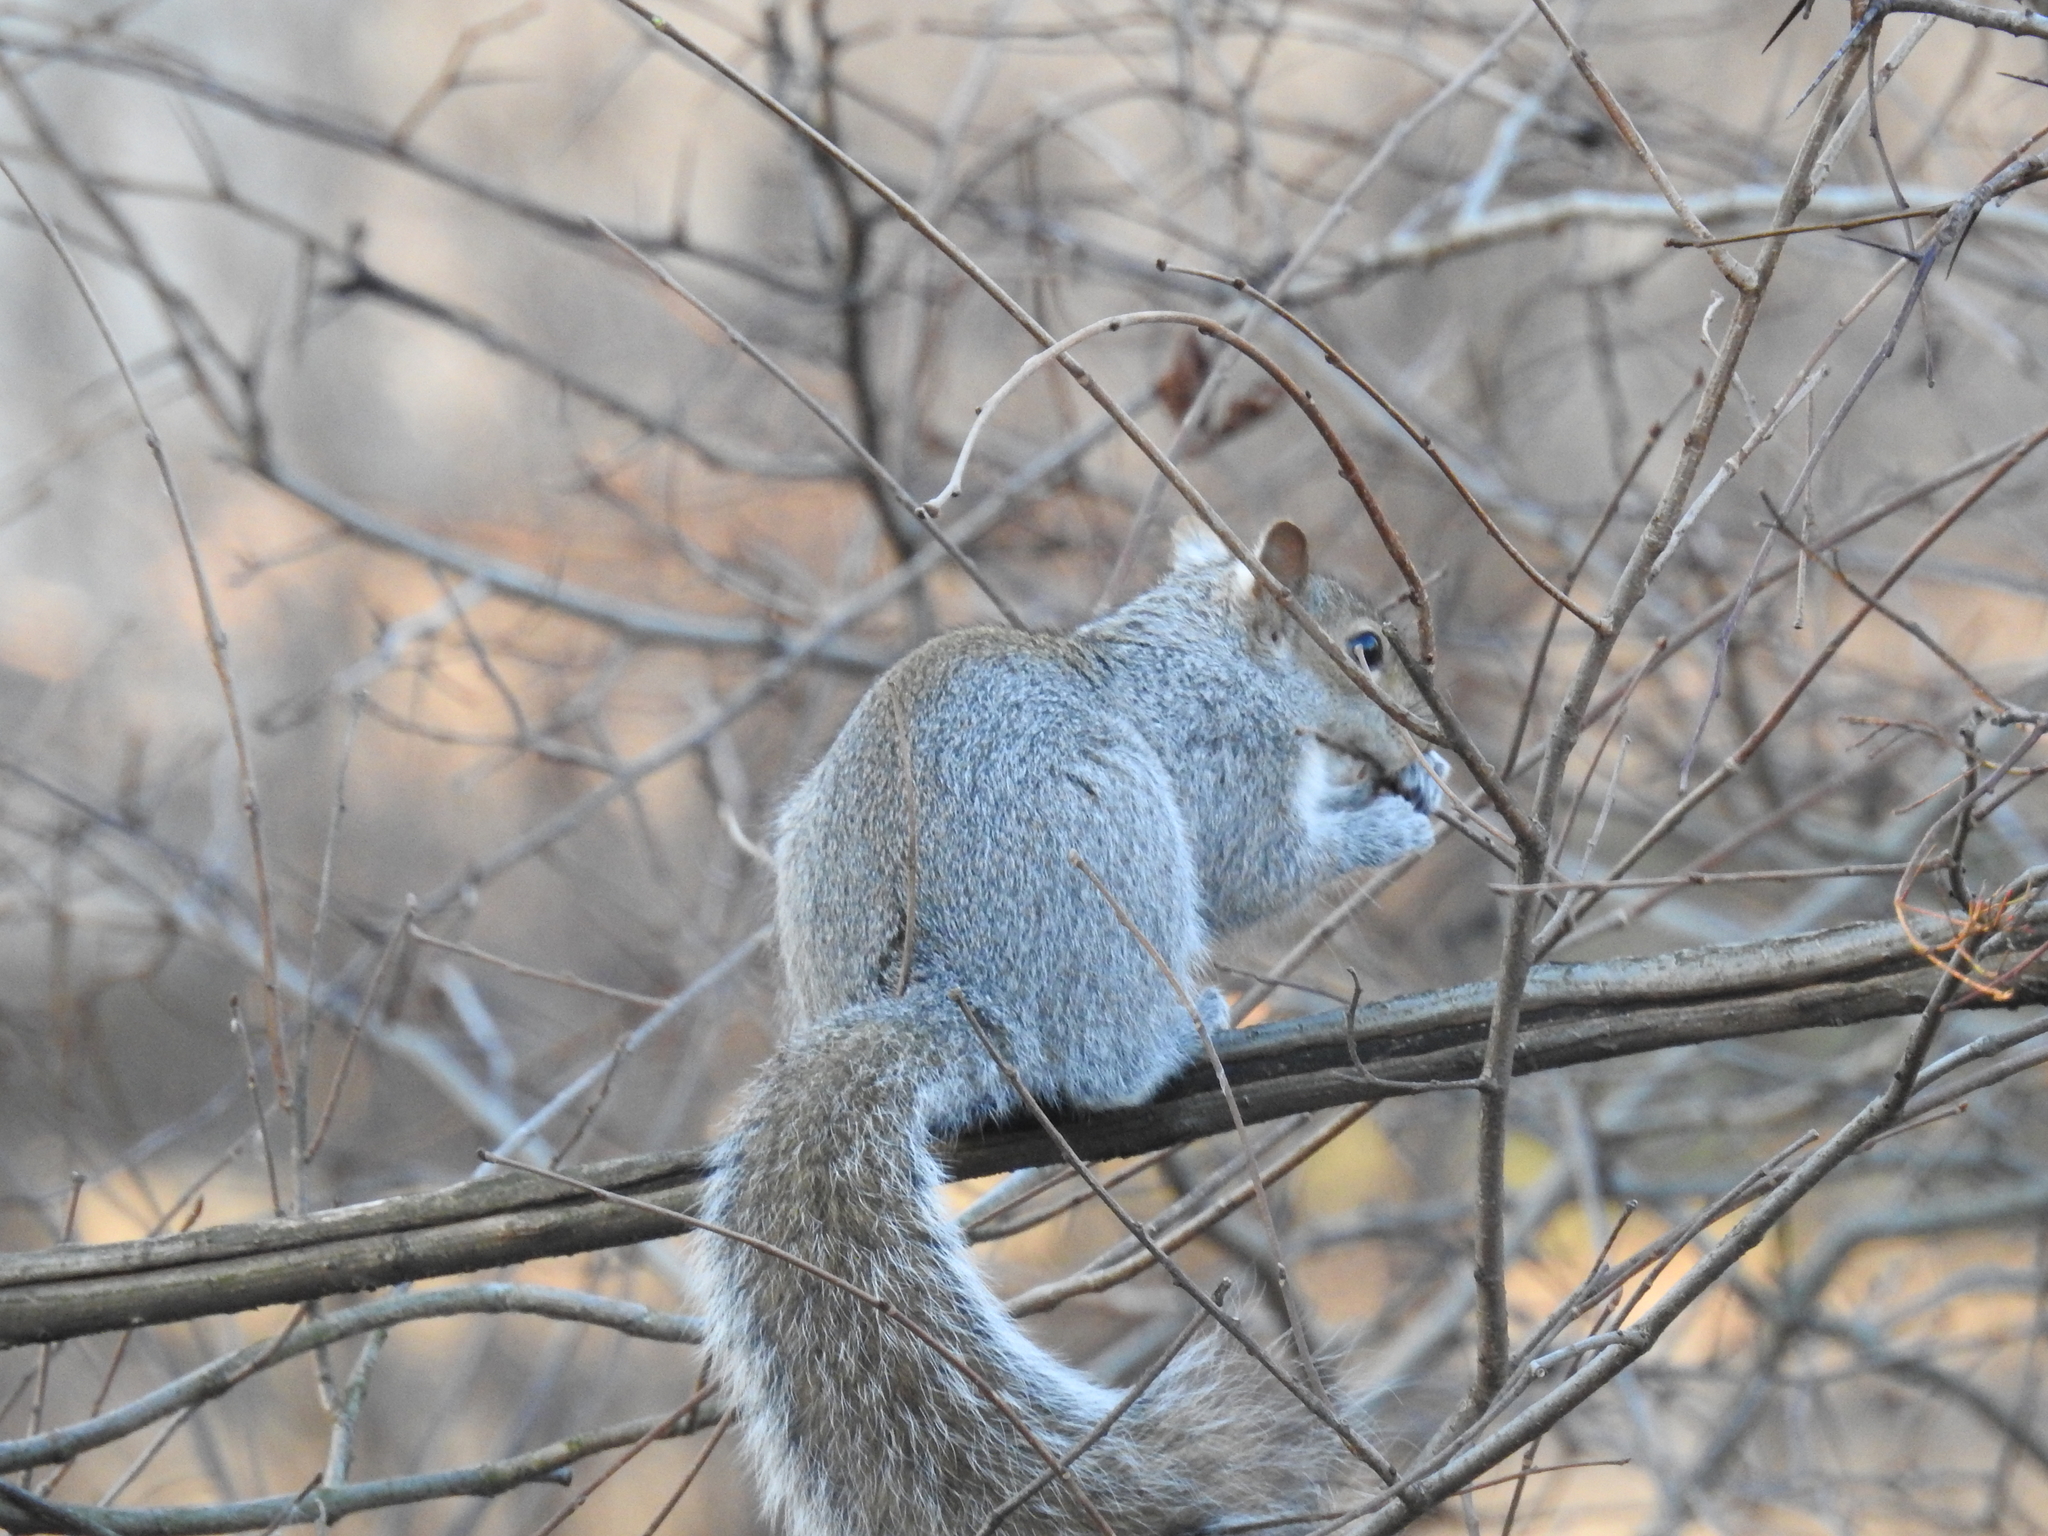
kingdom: Animalia
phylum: Chordata
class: Mammalia
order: Rodentia
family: Sciuridae
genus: Sciurus
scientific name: Sciurus carolinensis
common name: Eastern gray squirrel
